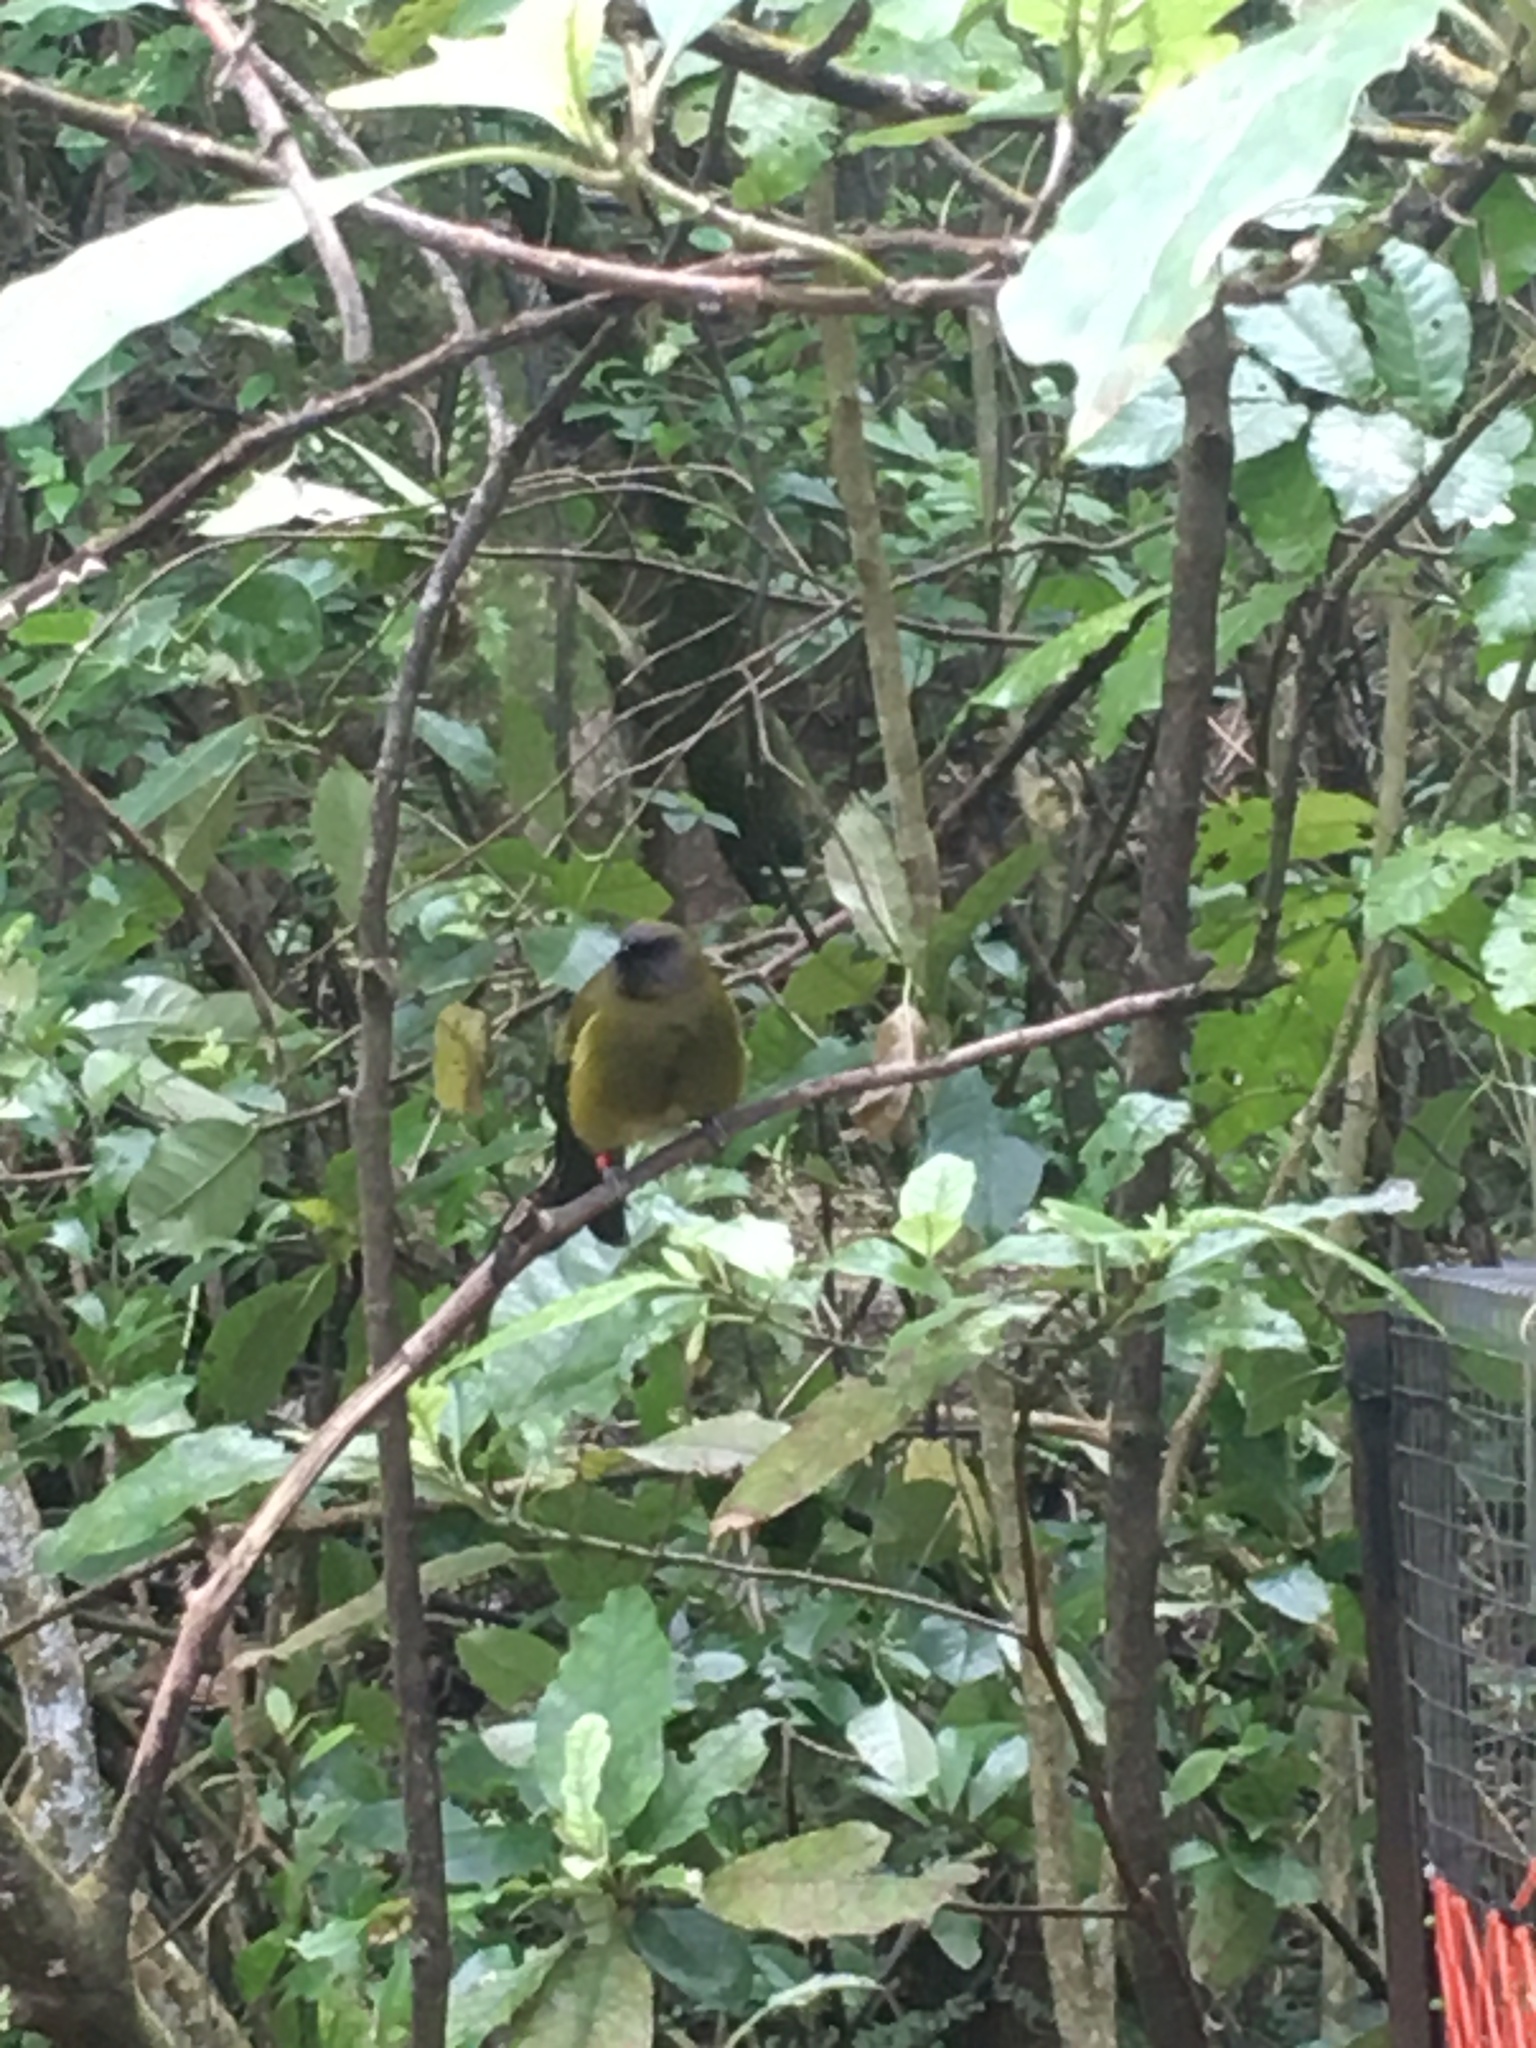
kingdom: Animalia
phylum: Chordata
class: Aves
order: Passeriformes
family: Meliphagidae
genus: Anthornis
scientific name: Anthornis melanura
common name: New zealand bellbird
